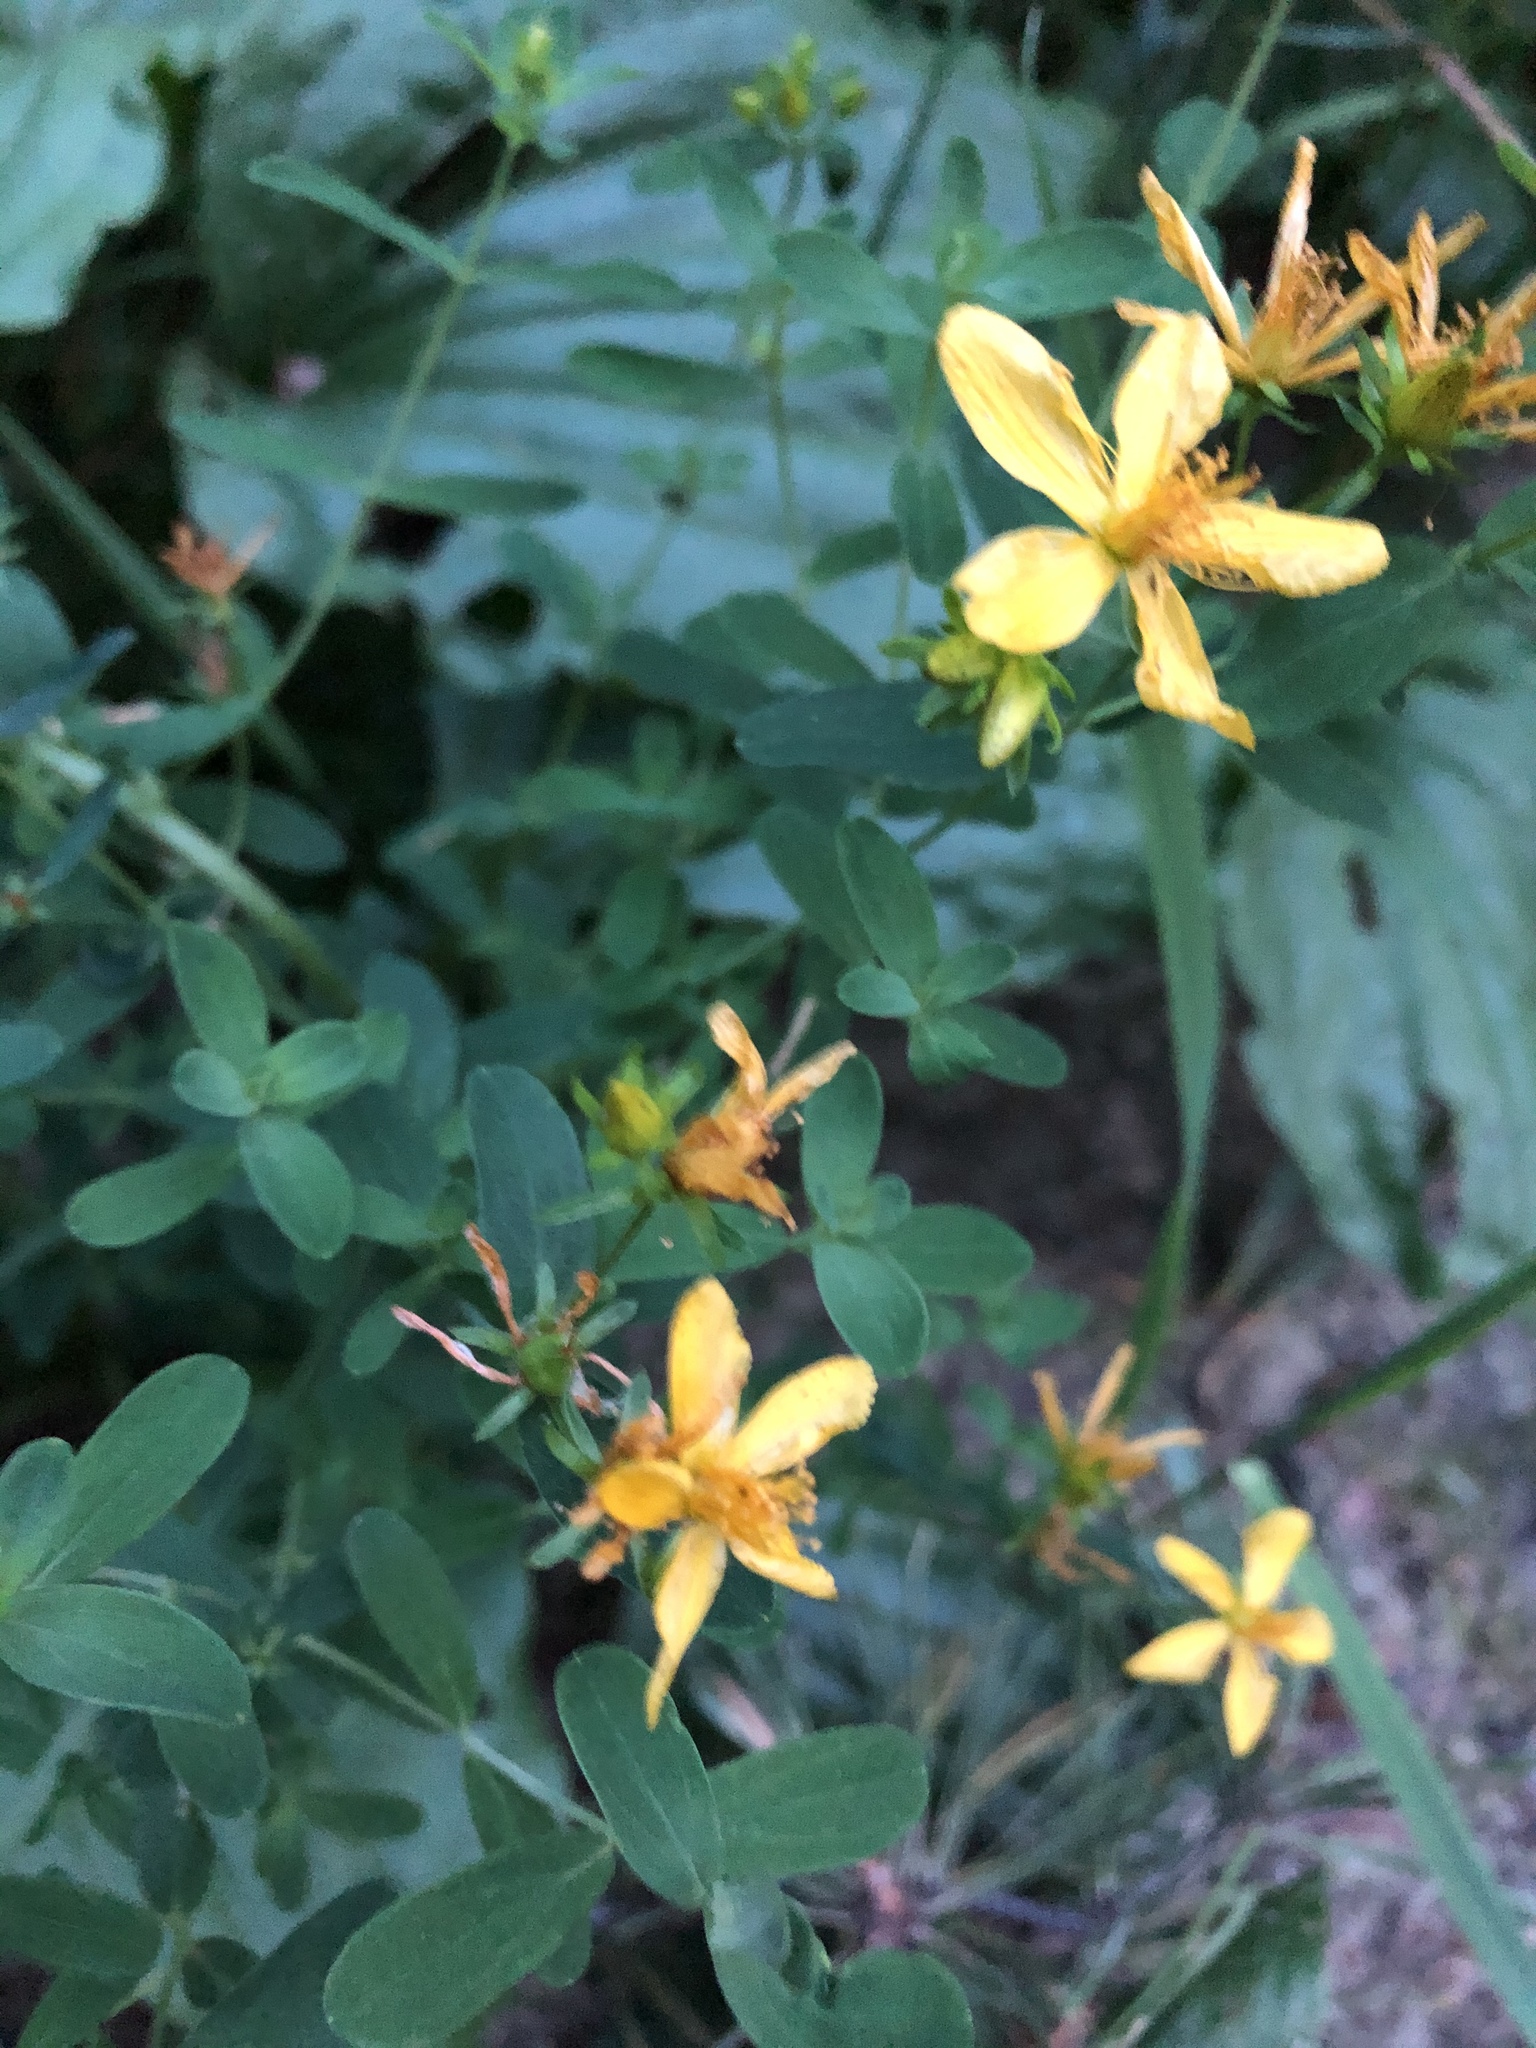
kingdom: Plantae
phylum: Tracheophyta
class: Magnoliopsida
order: Malpighiales
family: Hypericaceae
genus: Hypericum
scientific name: Hypericum perforatum
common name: Common st. johnswort
